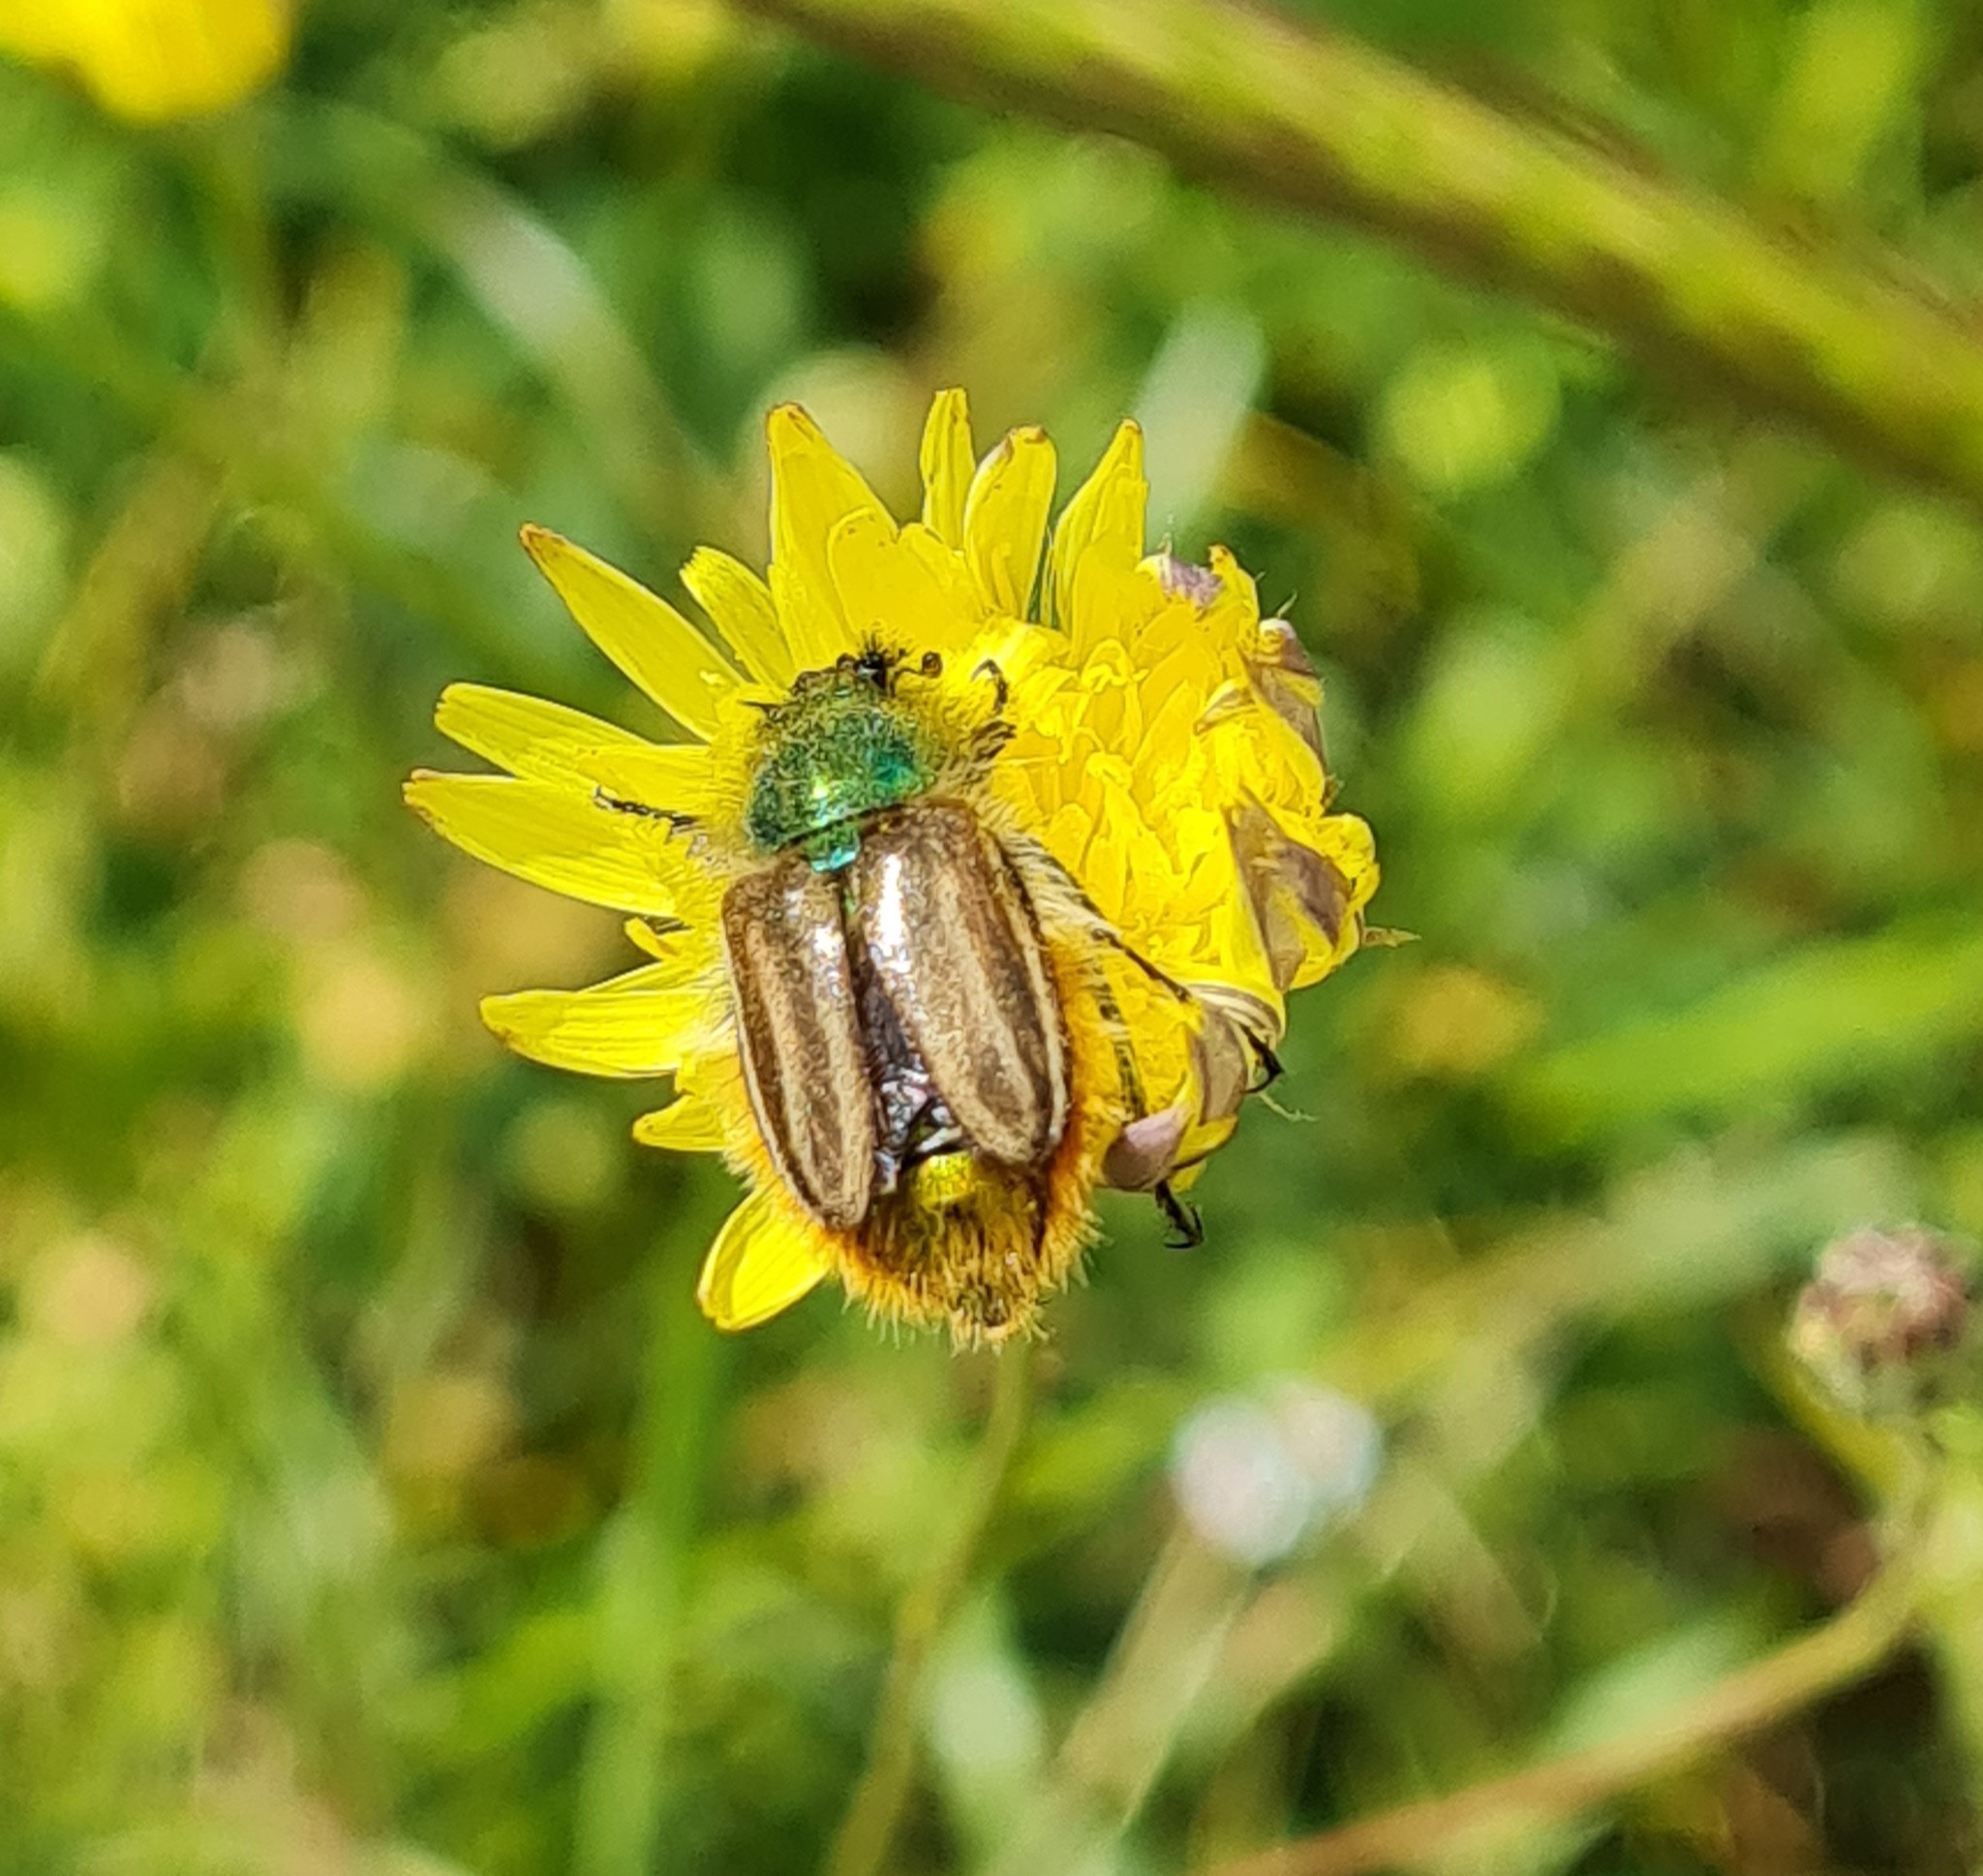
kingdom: Animalia
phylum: Arthropoda
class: Insecta
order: Coleoptera
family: Glaphyridae
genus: Eulasia
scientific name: Eulasia pareyssei
